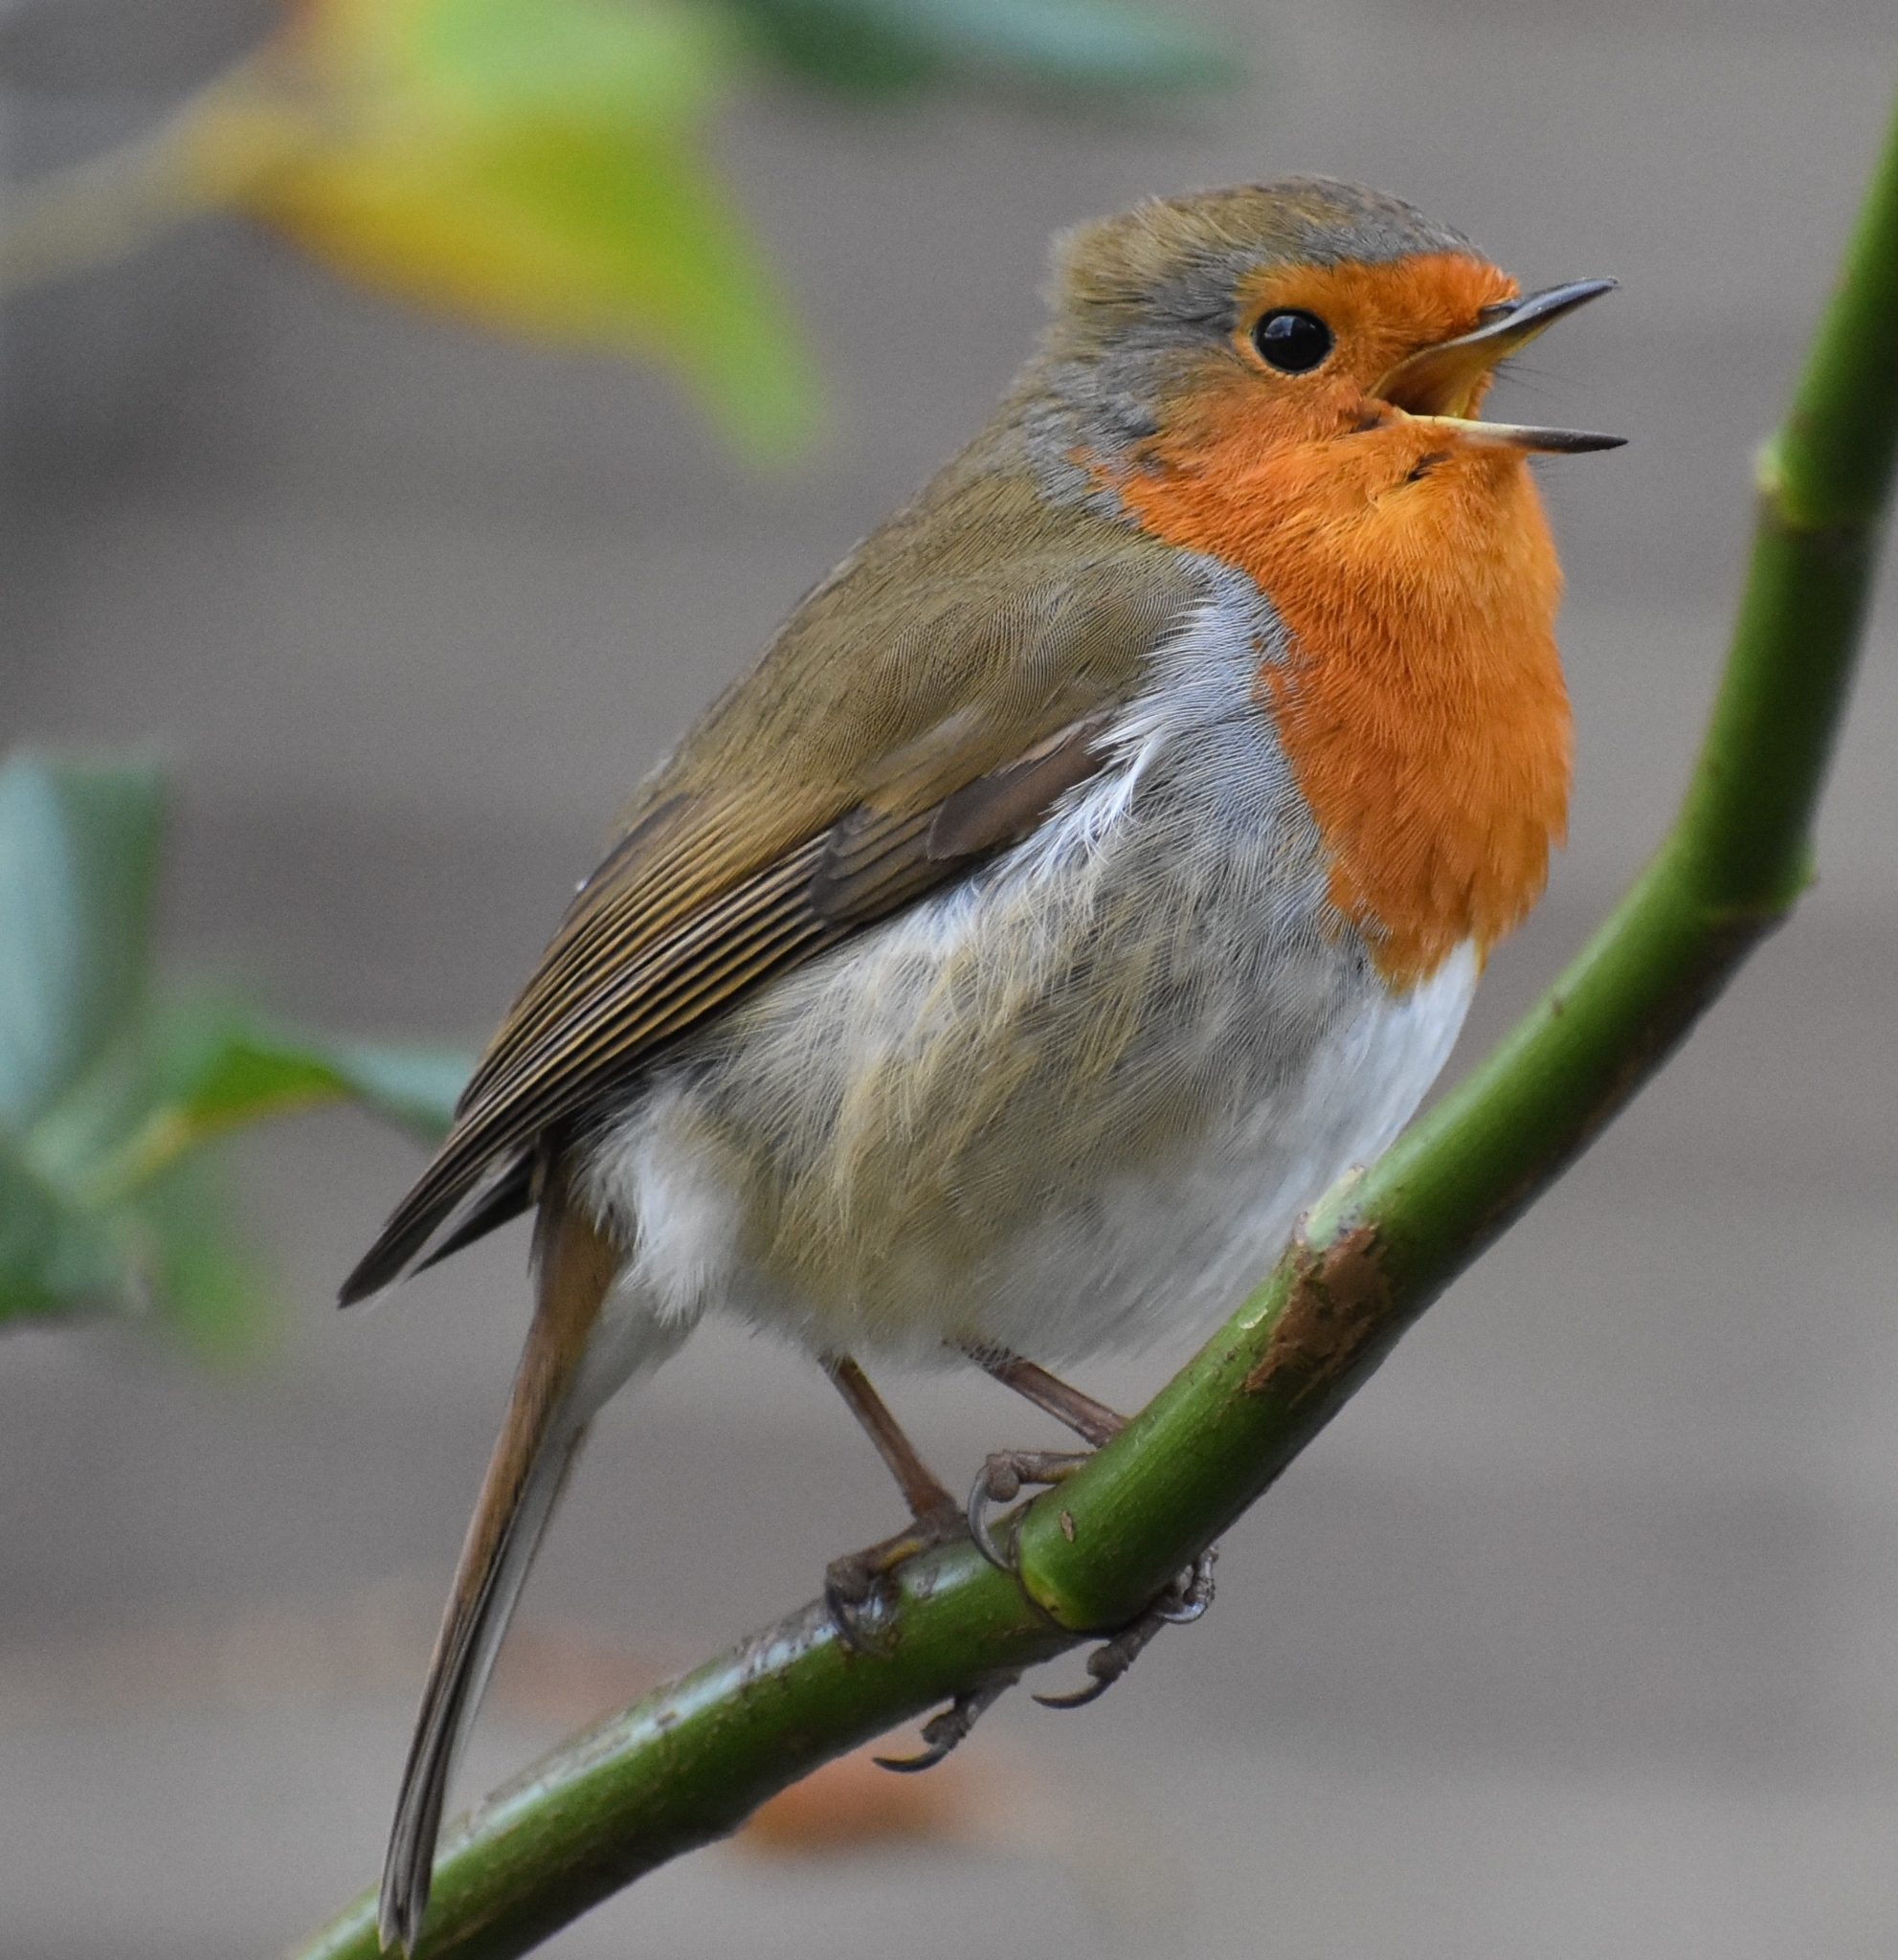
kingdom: Animalia
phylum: Chordata
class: Aves
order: Passeriformes
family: Muscicapidae
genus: Erithacus
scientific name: Erithacus rubecula
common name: European robin
